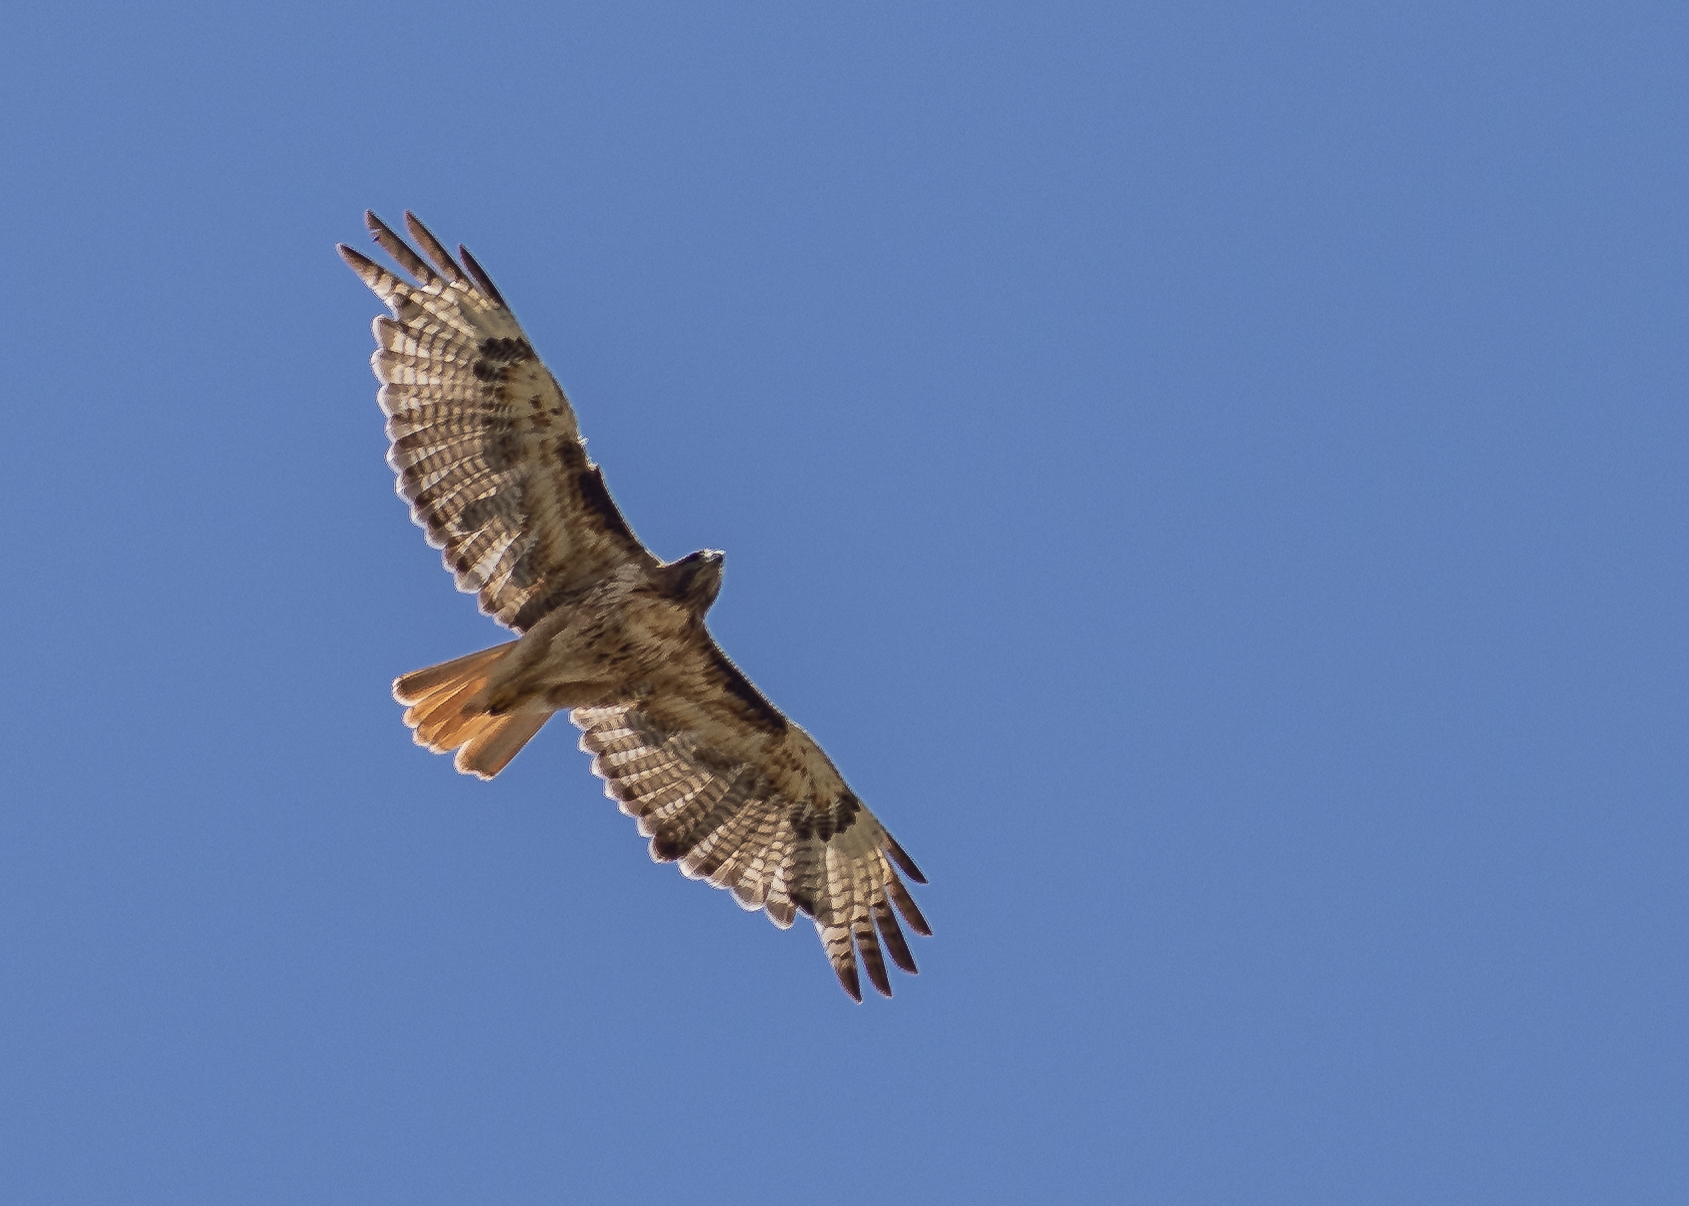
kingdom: Animalia
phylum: Chordata
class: Aves
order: Accipitriformes
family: Accipitridae
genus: Buteo
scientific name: Buteo jamaicensis
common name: Red-tailed hawk
